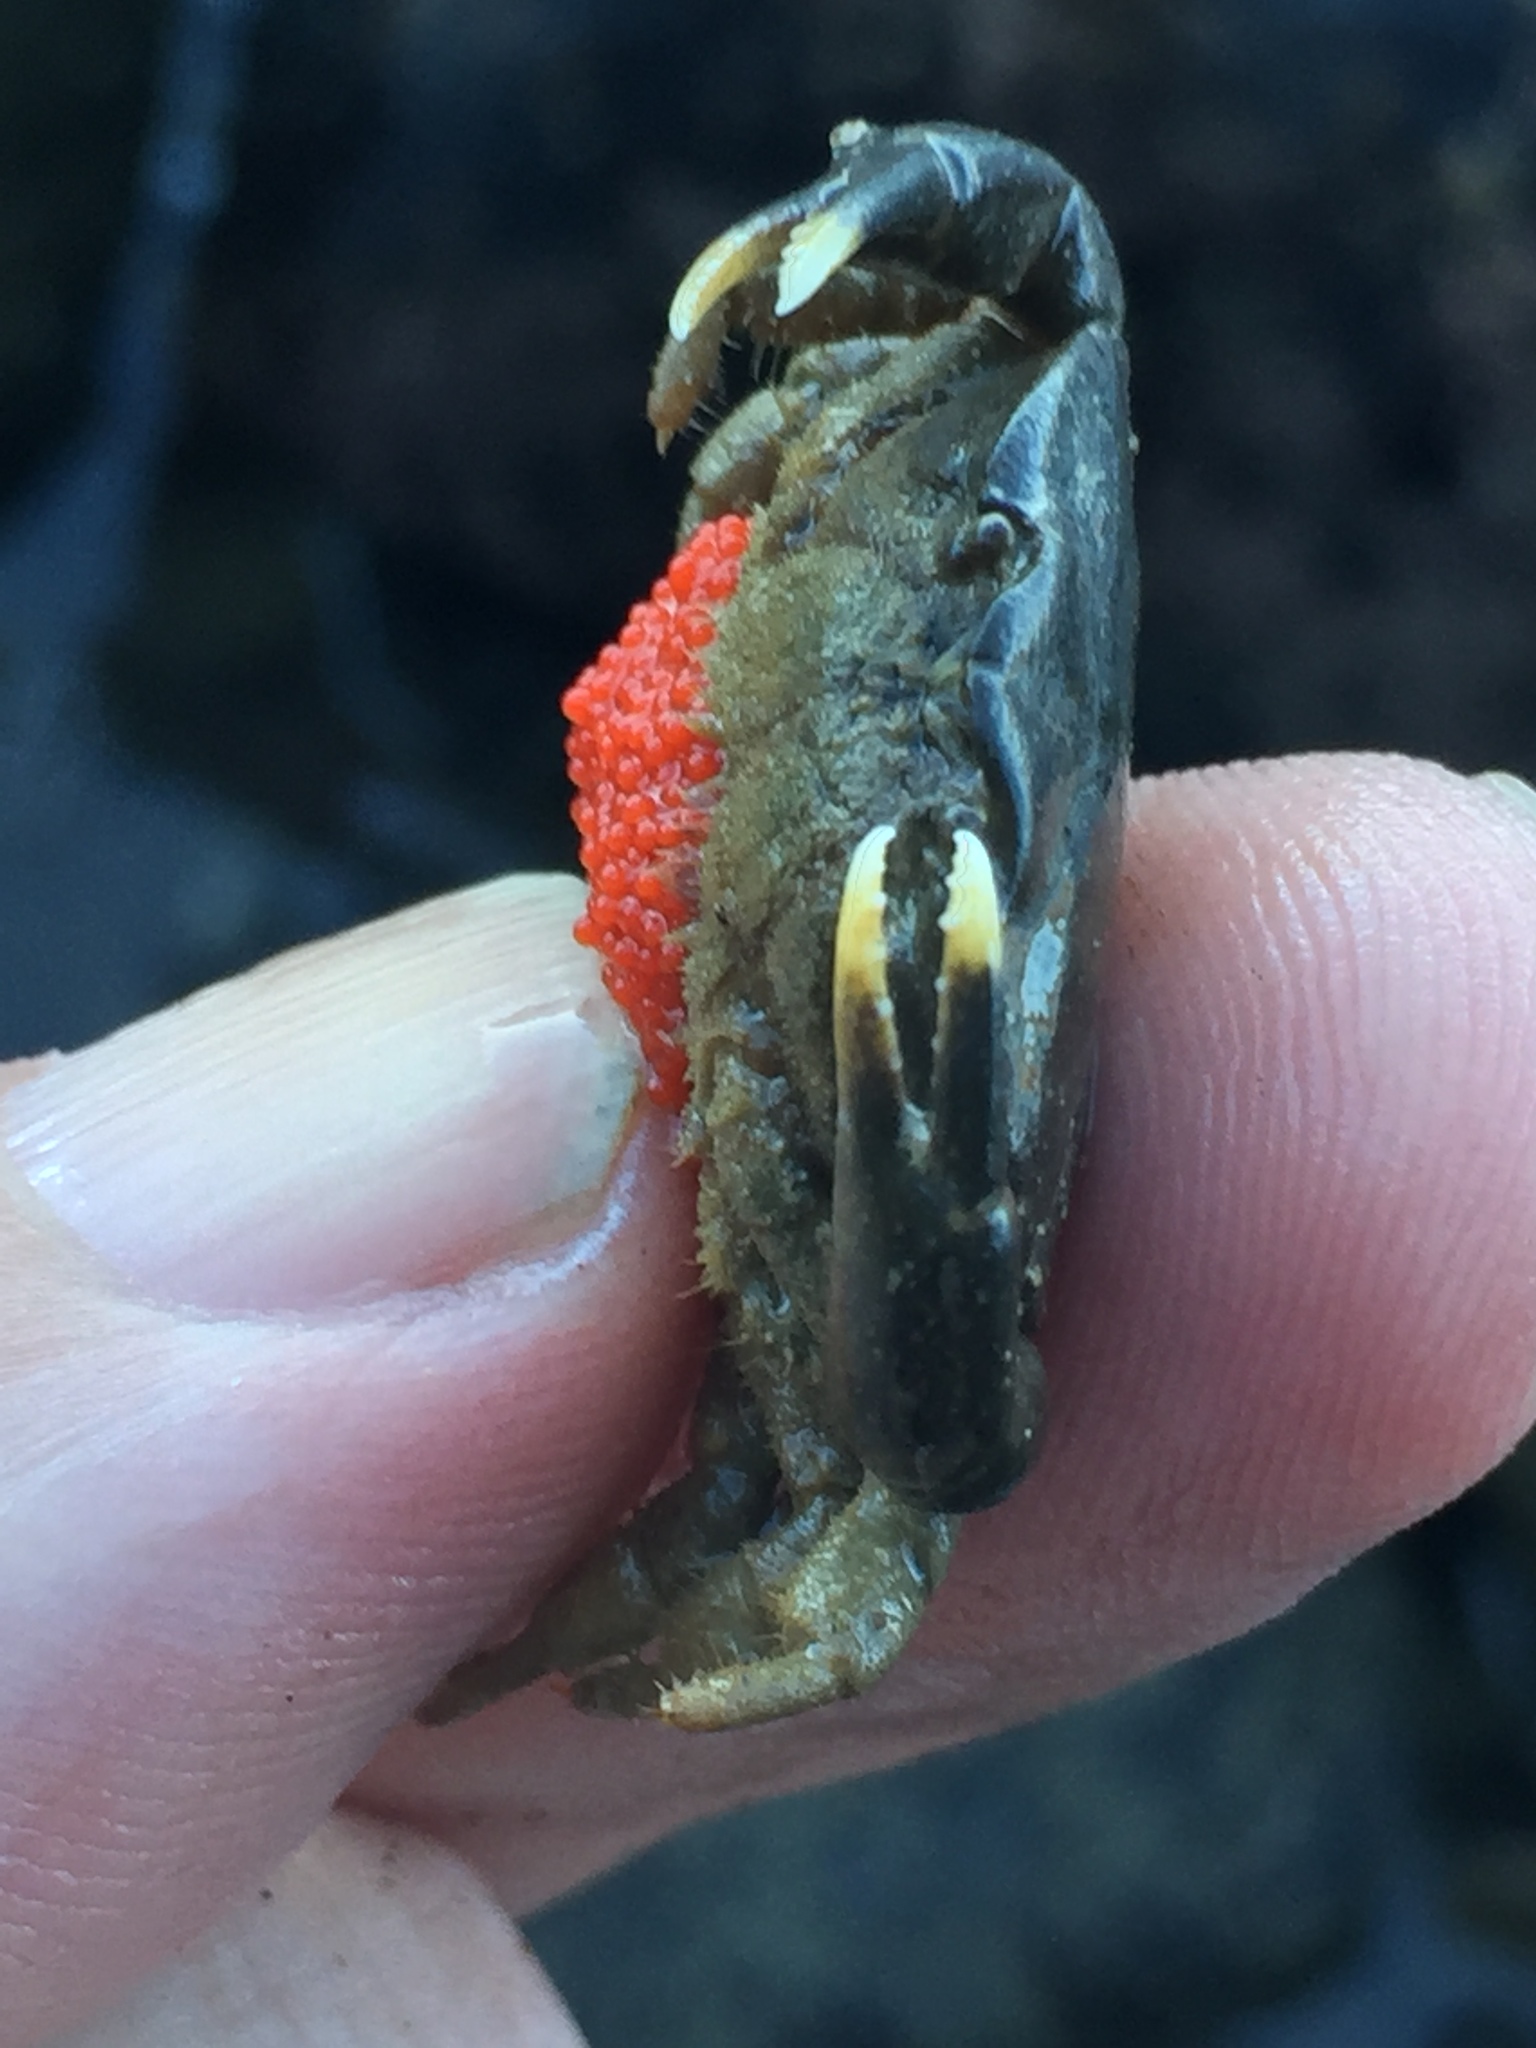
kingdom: Animalia
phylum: Arthropoda
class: Malacostraca
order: Decapoda
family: Heteroziidae
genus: Heterozius
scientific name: Heterozius rotundifrons
